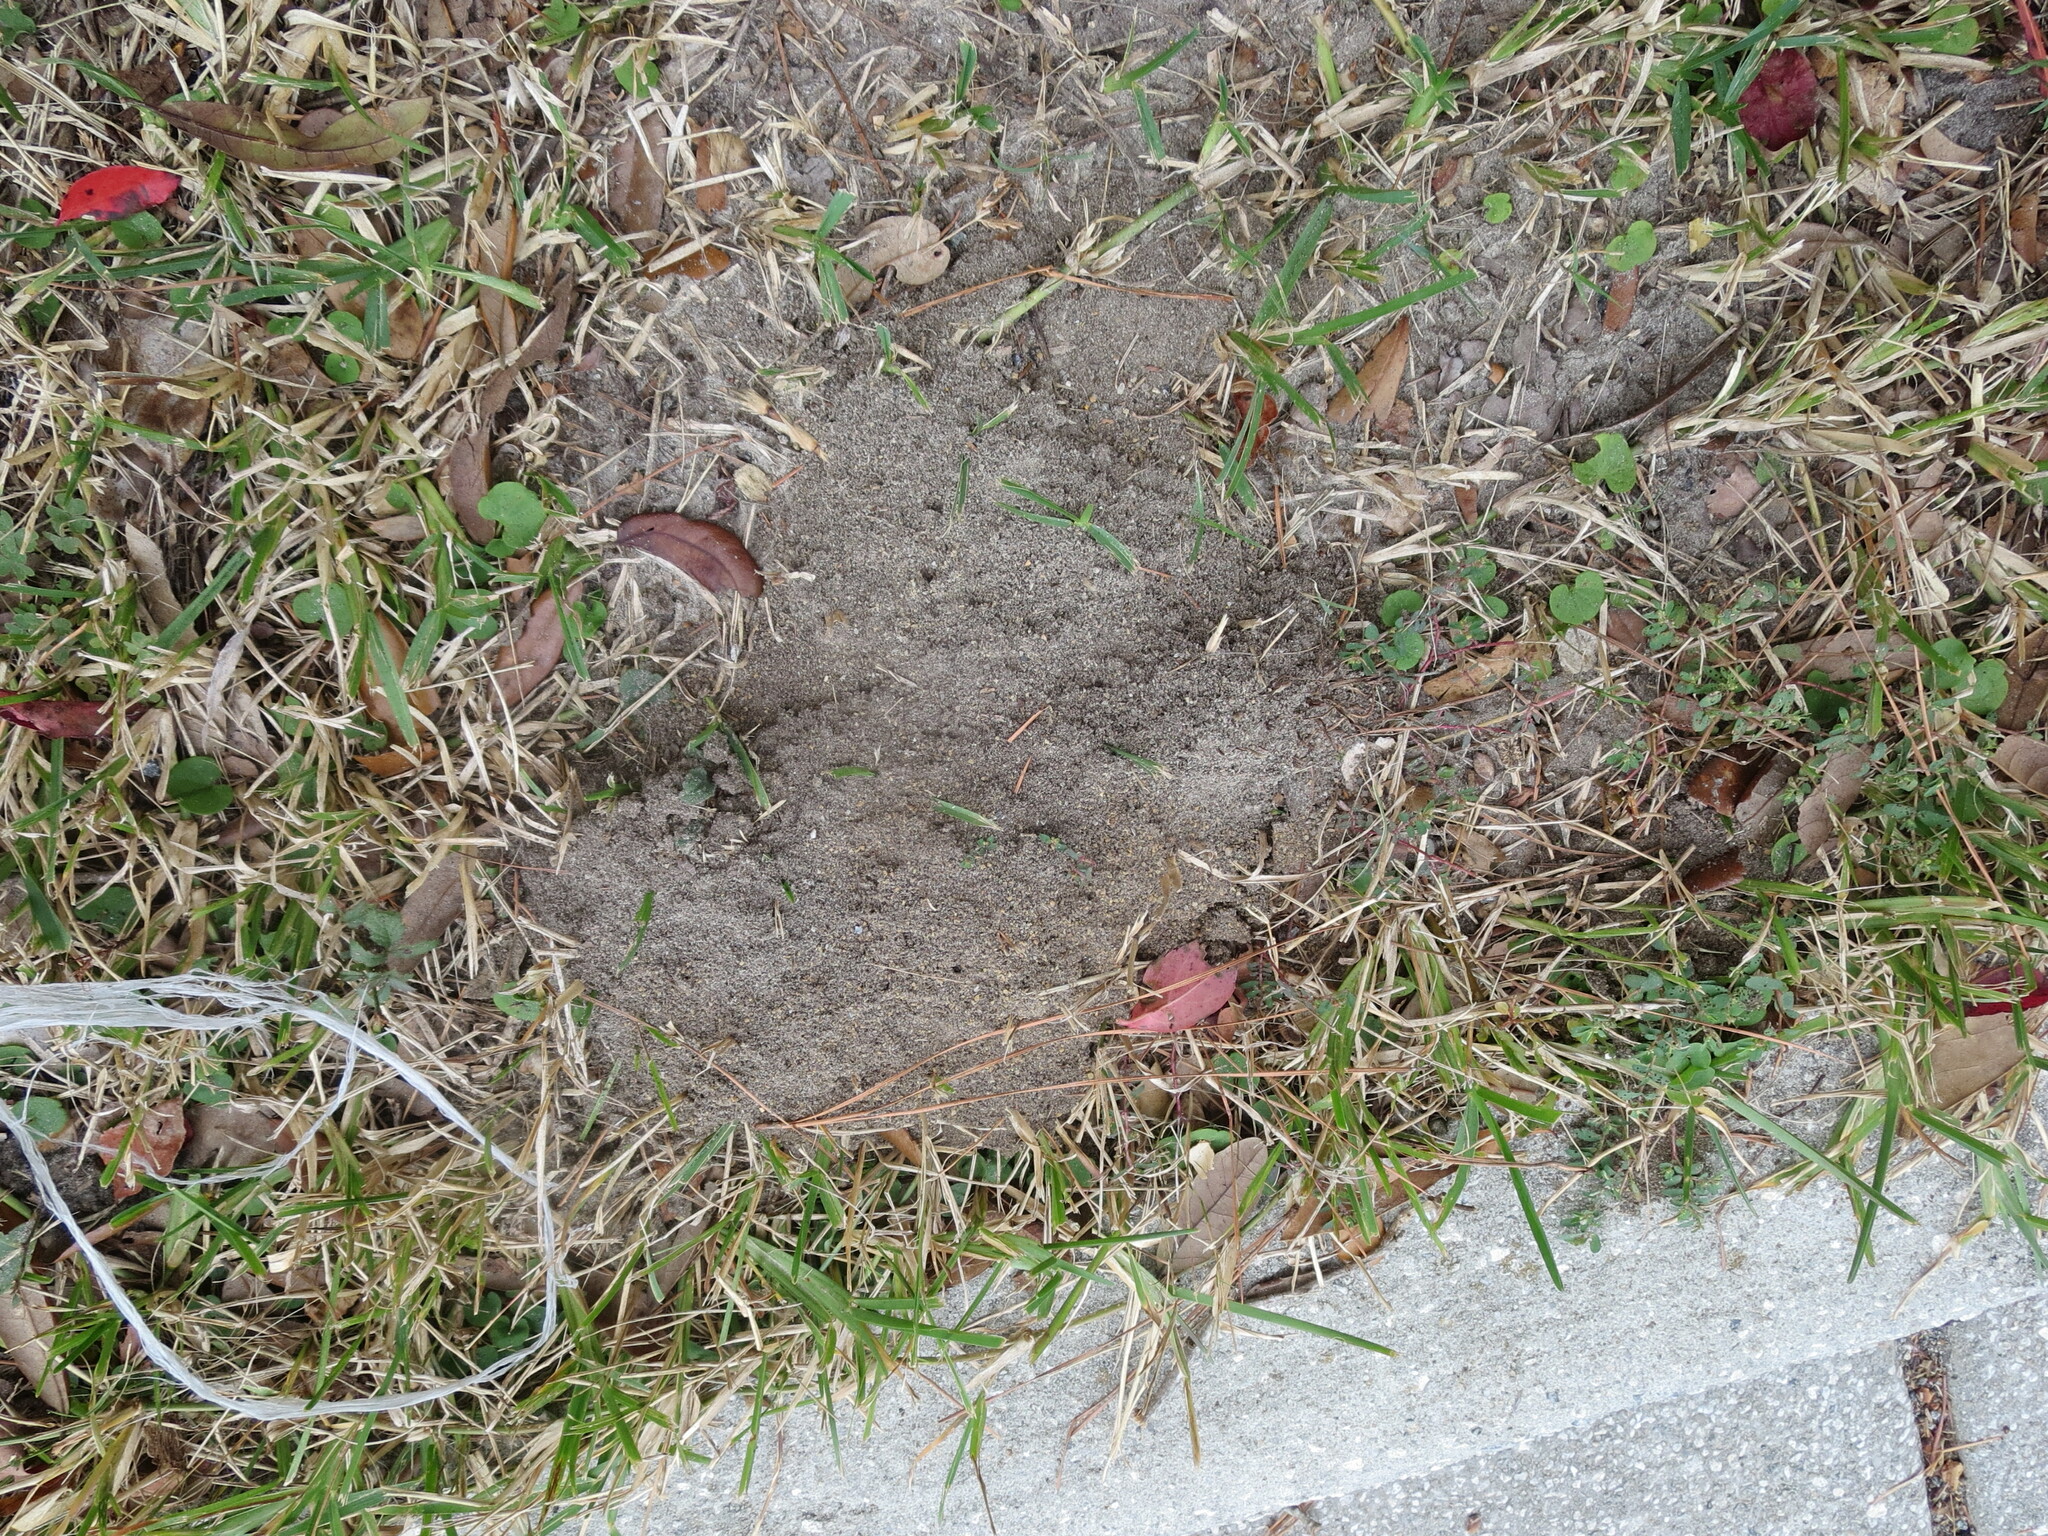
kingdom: Animalia
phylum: Arthropoda
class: Insecta
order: Hymenoptera
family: Formicidae
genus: Solenopsis
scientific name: Solenopsis invicta
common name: Red imported fire ant
